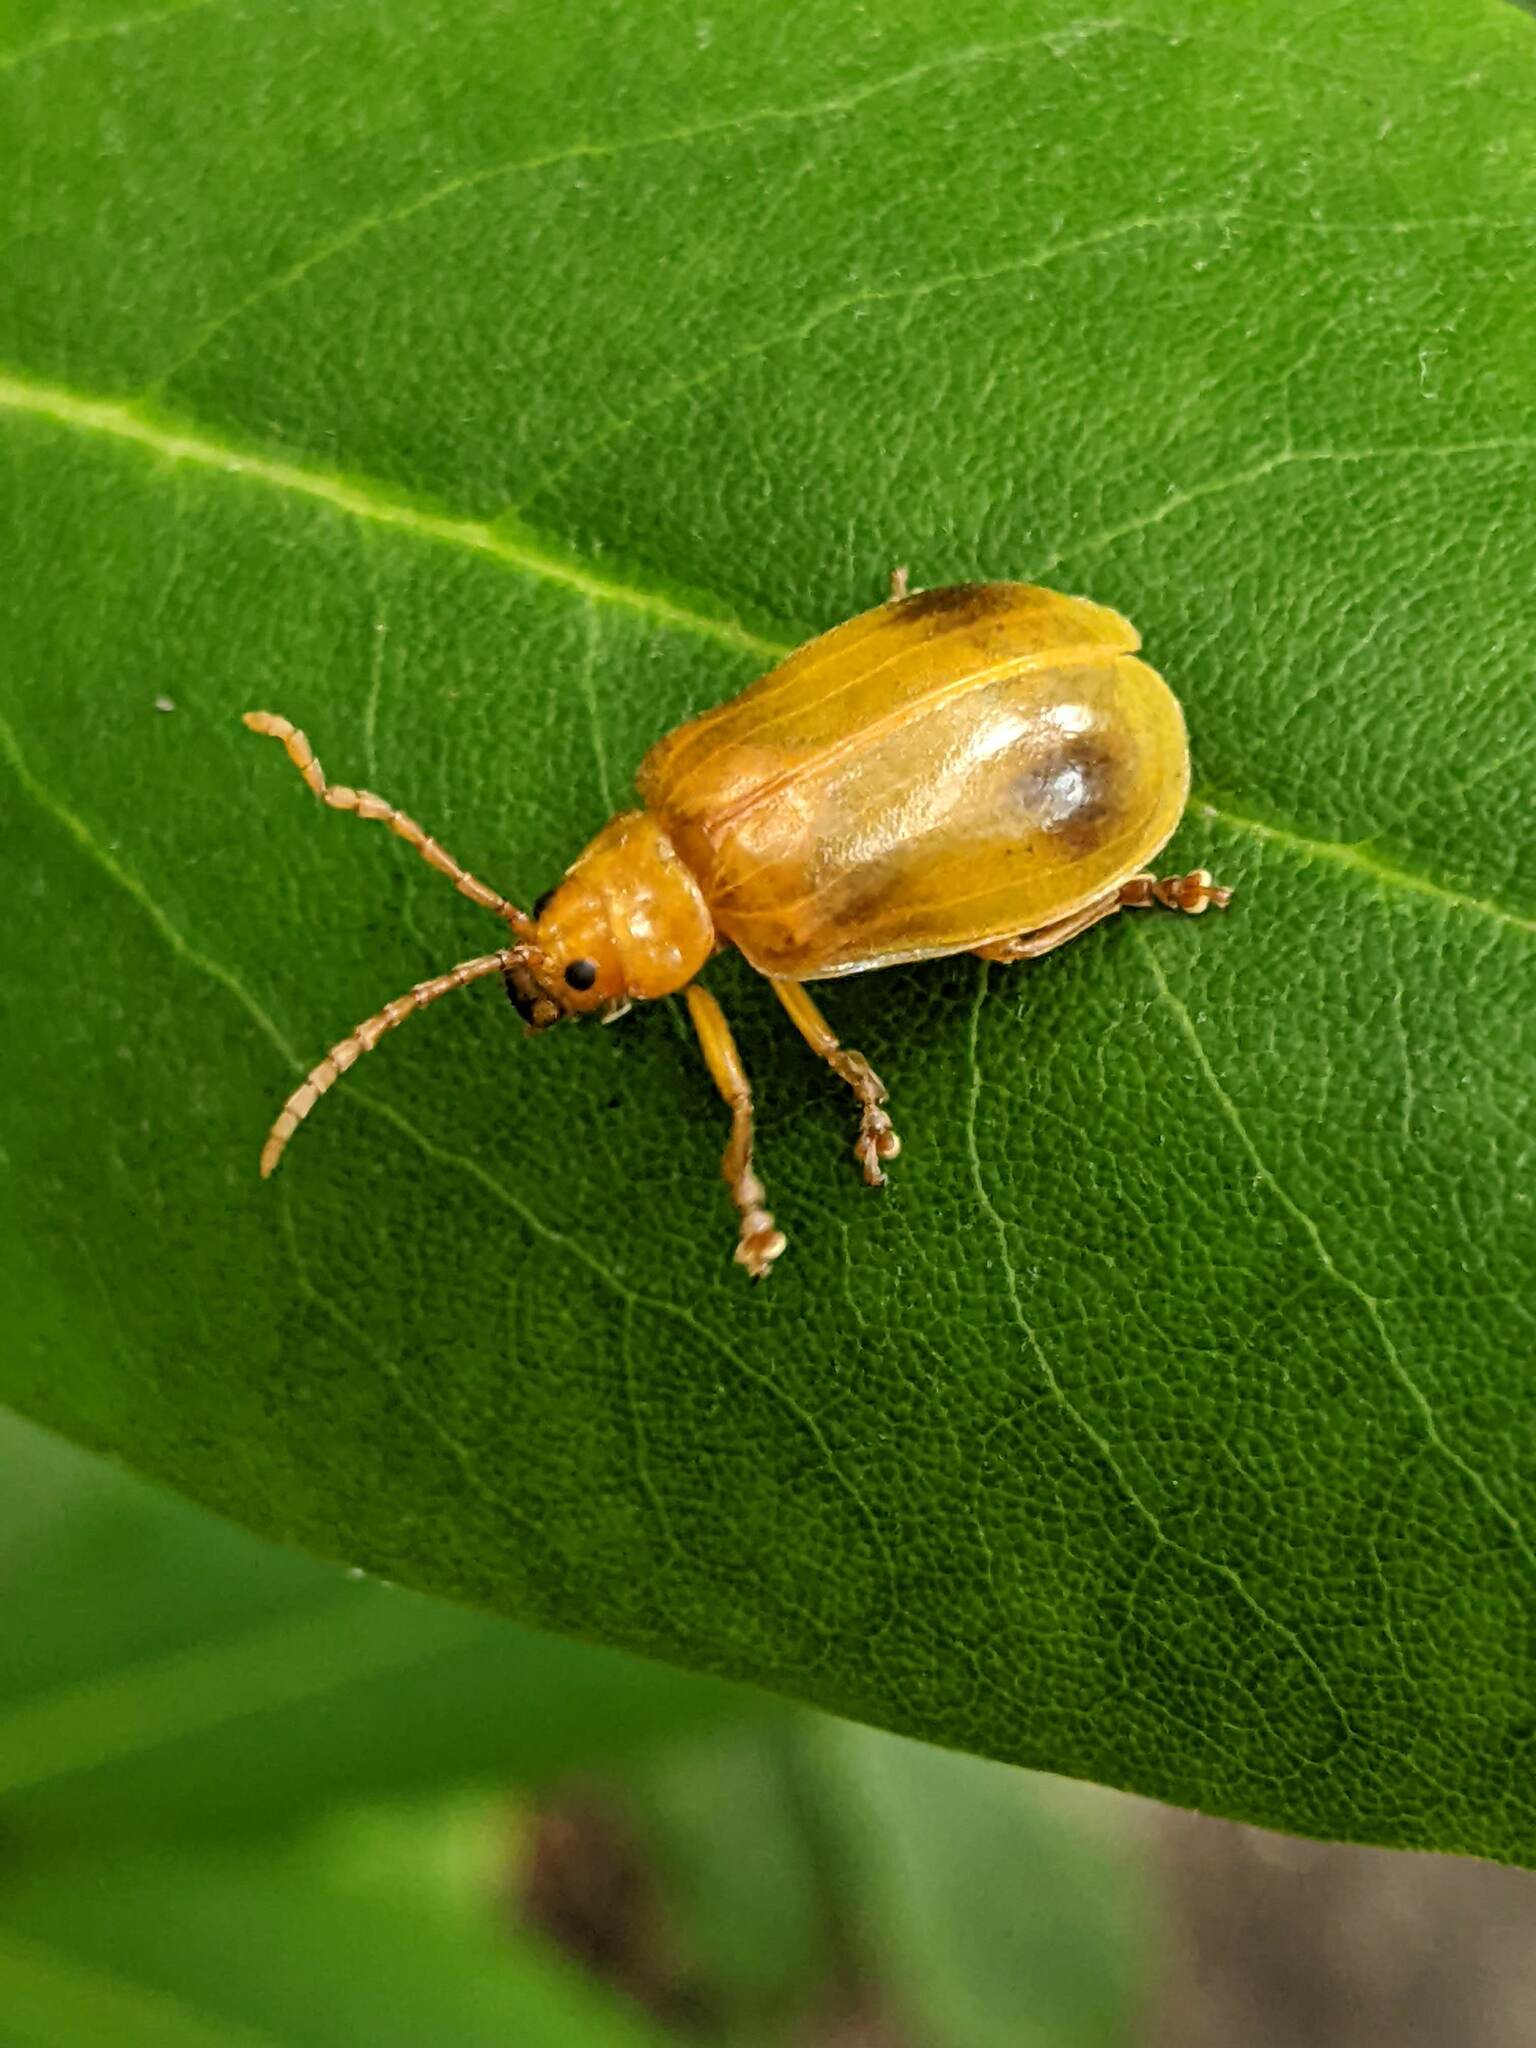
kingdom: Animalia
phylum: Arthropoda
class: Insecta
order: Coleoptera
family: Chrysomelidae
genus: Monocesta
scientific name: Monocesta coryli
